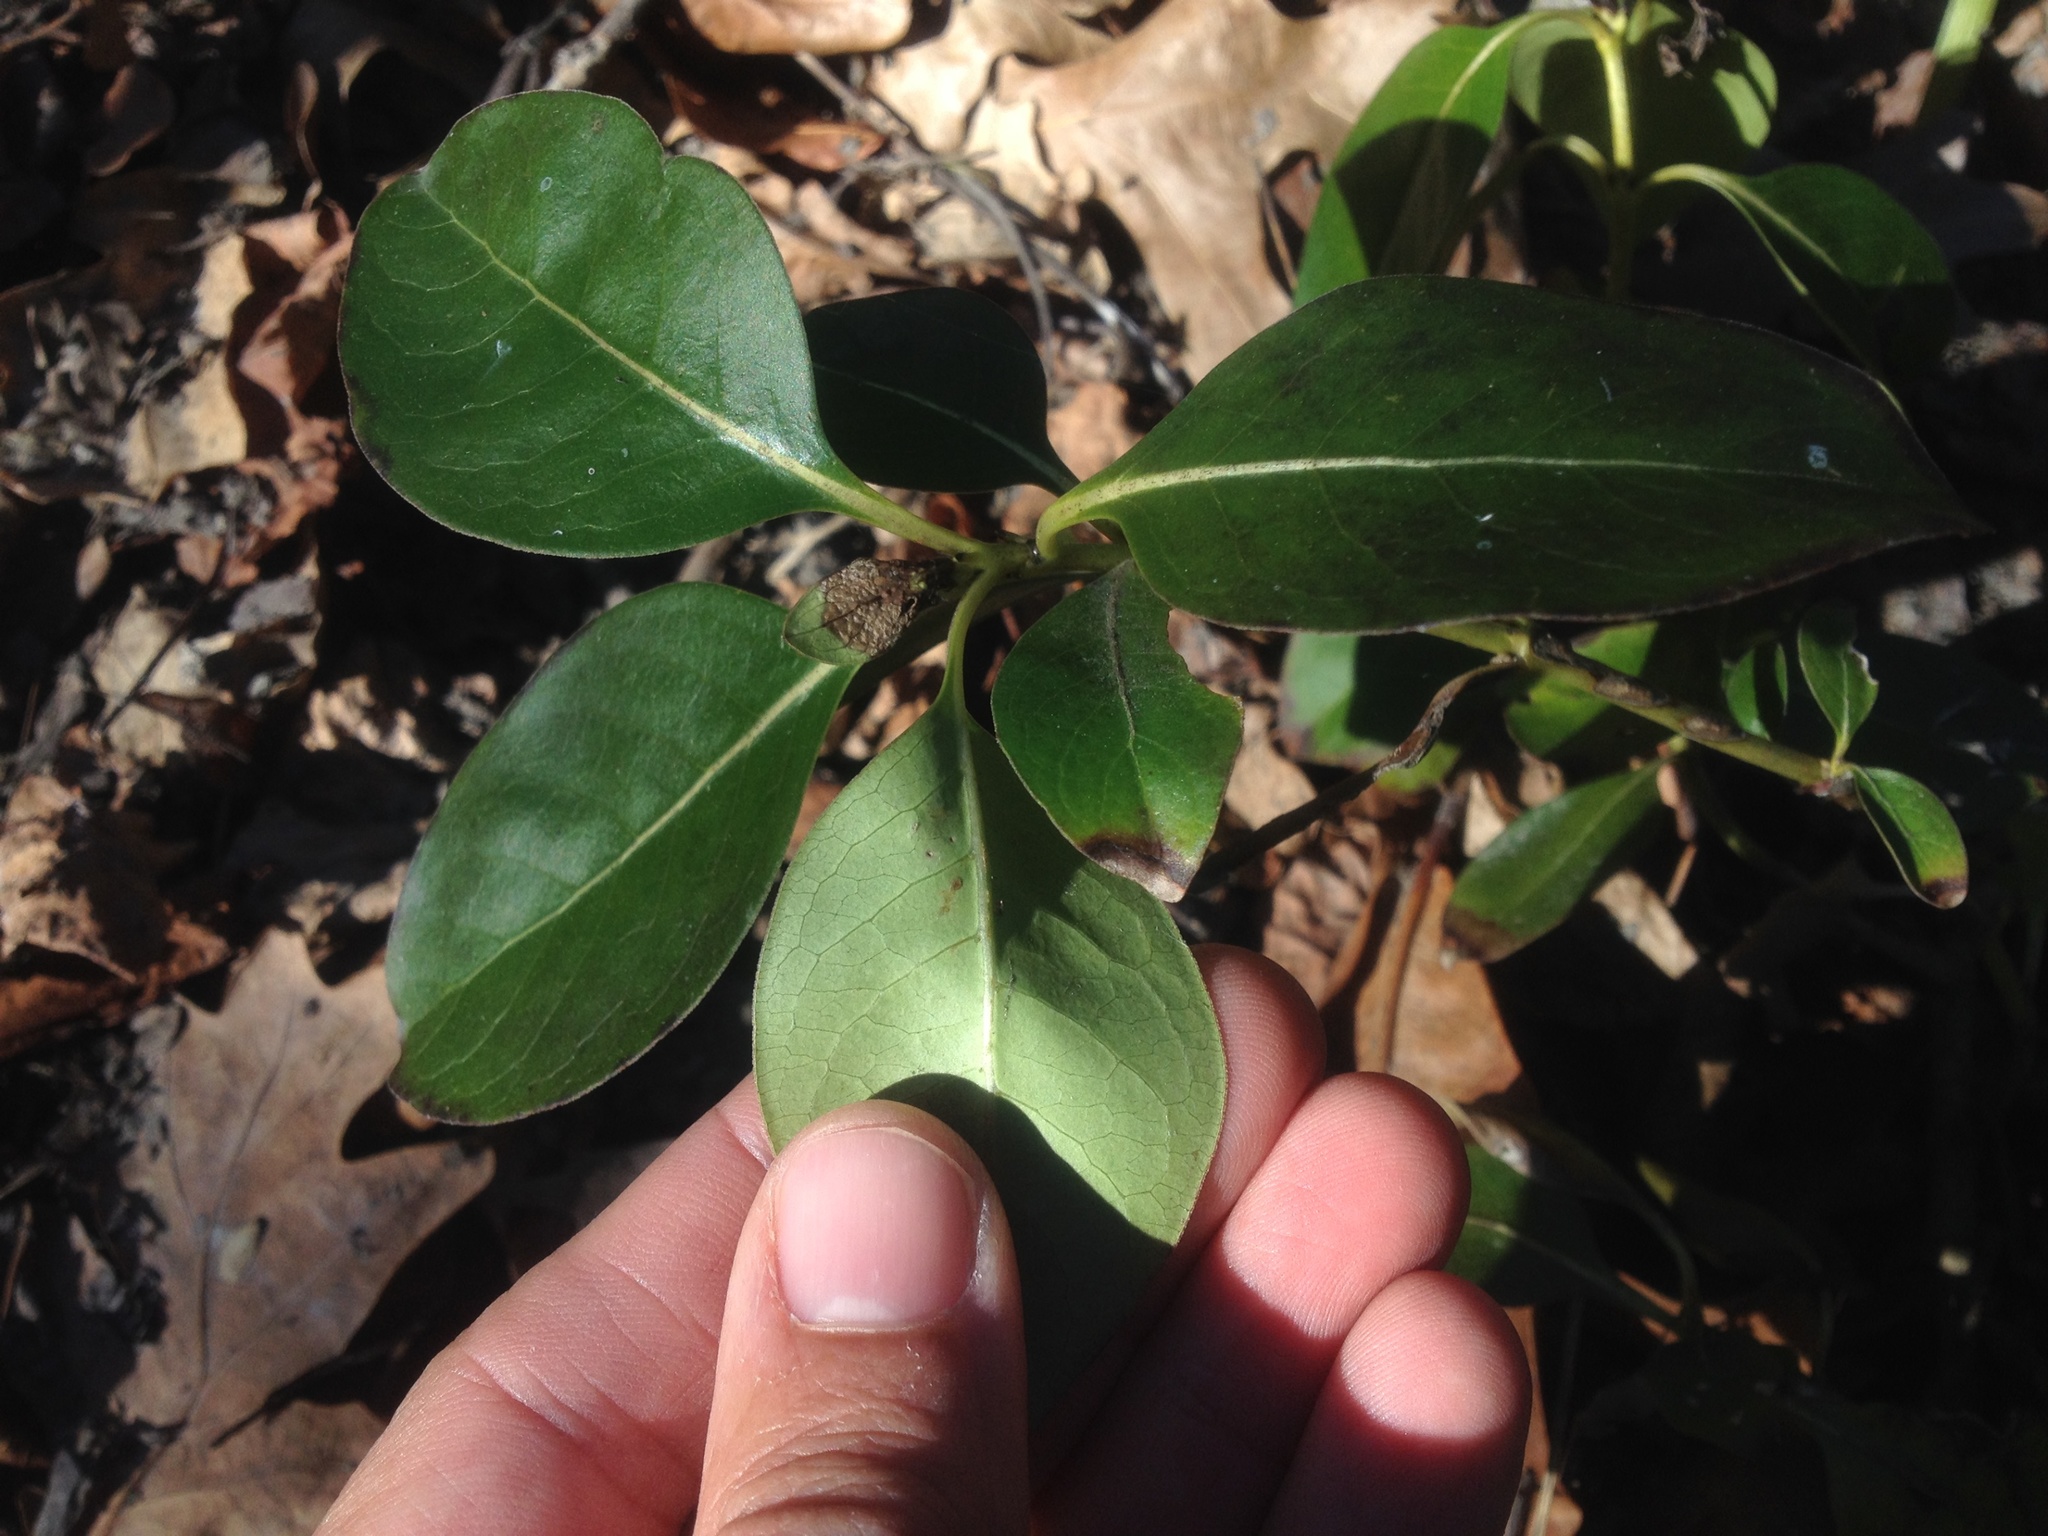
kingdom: Plantae
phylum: Tracheophyta
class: Magnoliopsida
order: Gentianales
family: Rubiaceae
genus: Coprosma
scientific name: Coprosma robusta
